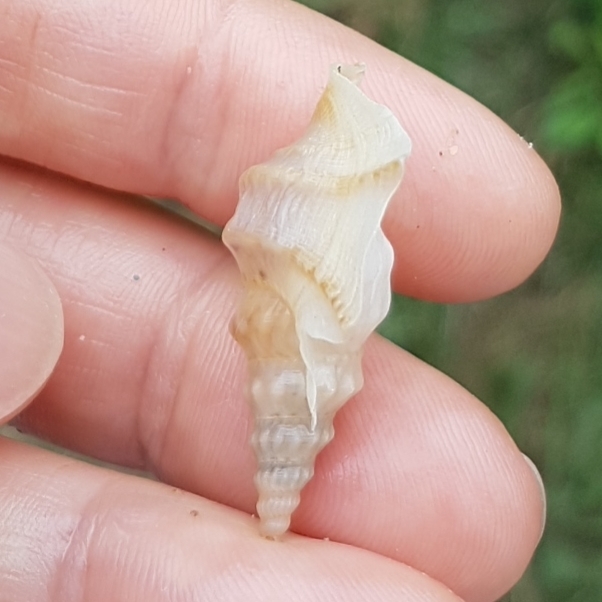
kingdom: Animalia
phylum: Mollusca
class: Gastropoda
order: Littorinimorpha
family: Aporrhaidae
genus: Aporrhais
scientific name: Aporrhais pespelecani
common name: Common pelican’s foot
